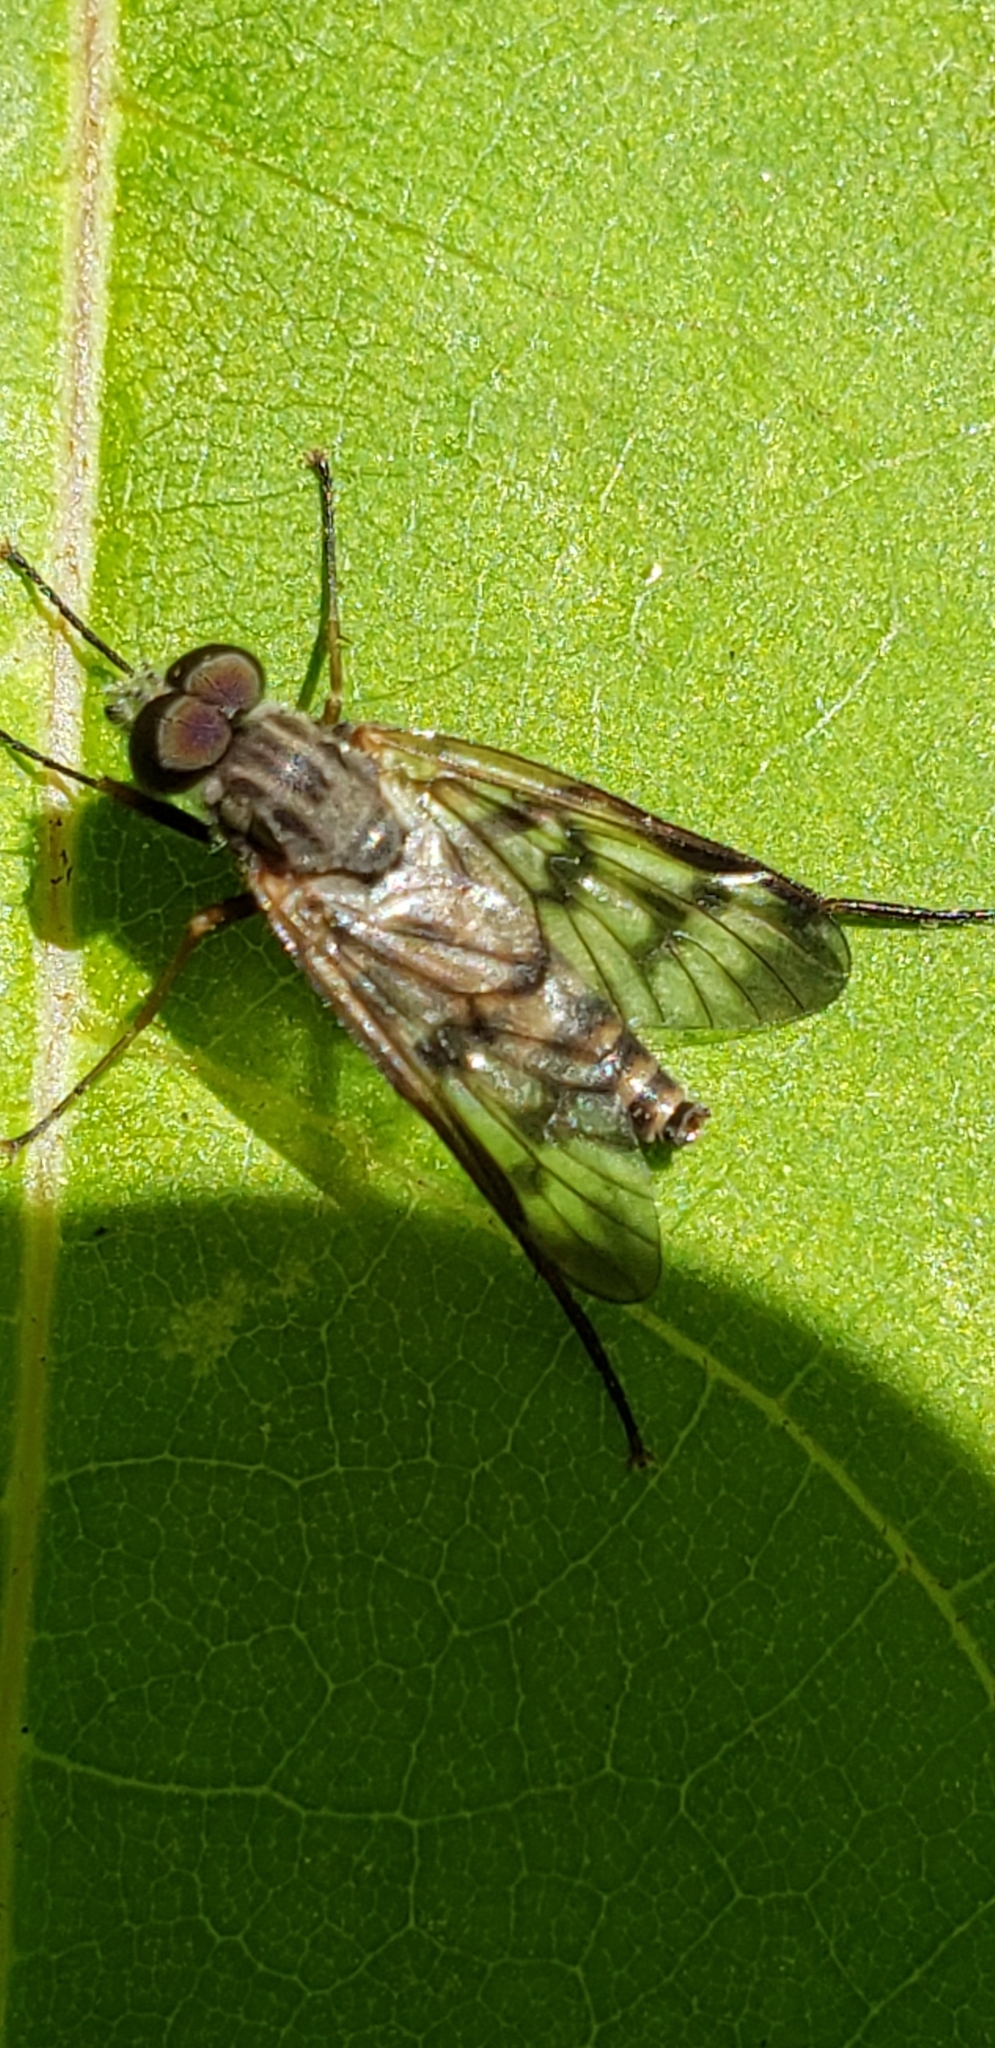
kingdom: Animalia
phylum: Arthropoda
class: Insecta
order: Diptera
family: Rhagionidae
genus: Rhagio
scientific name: Rhagio mystaceus
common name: Common snipe fly
